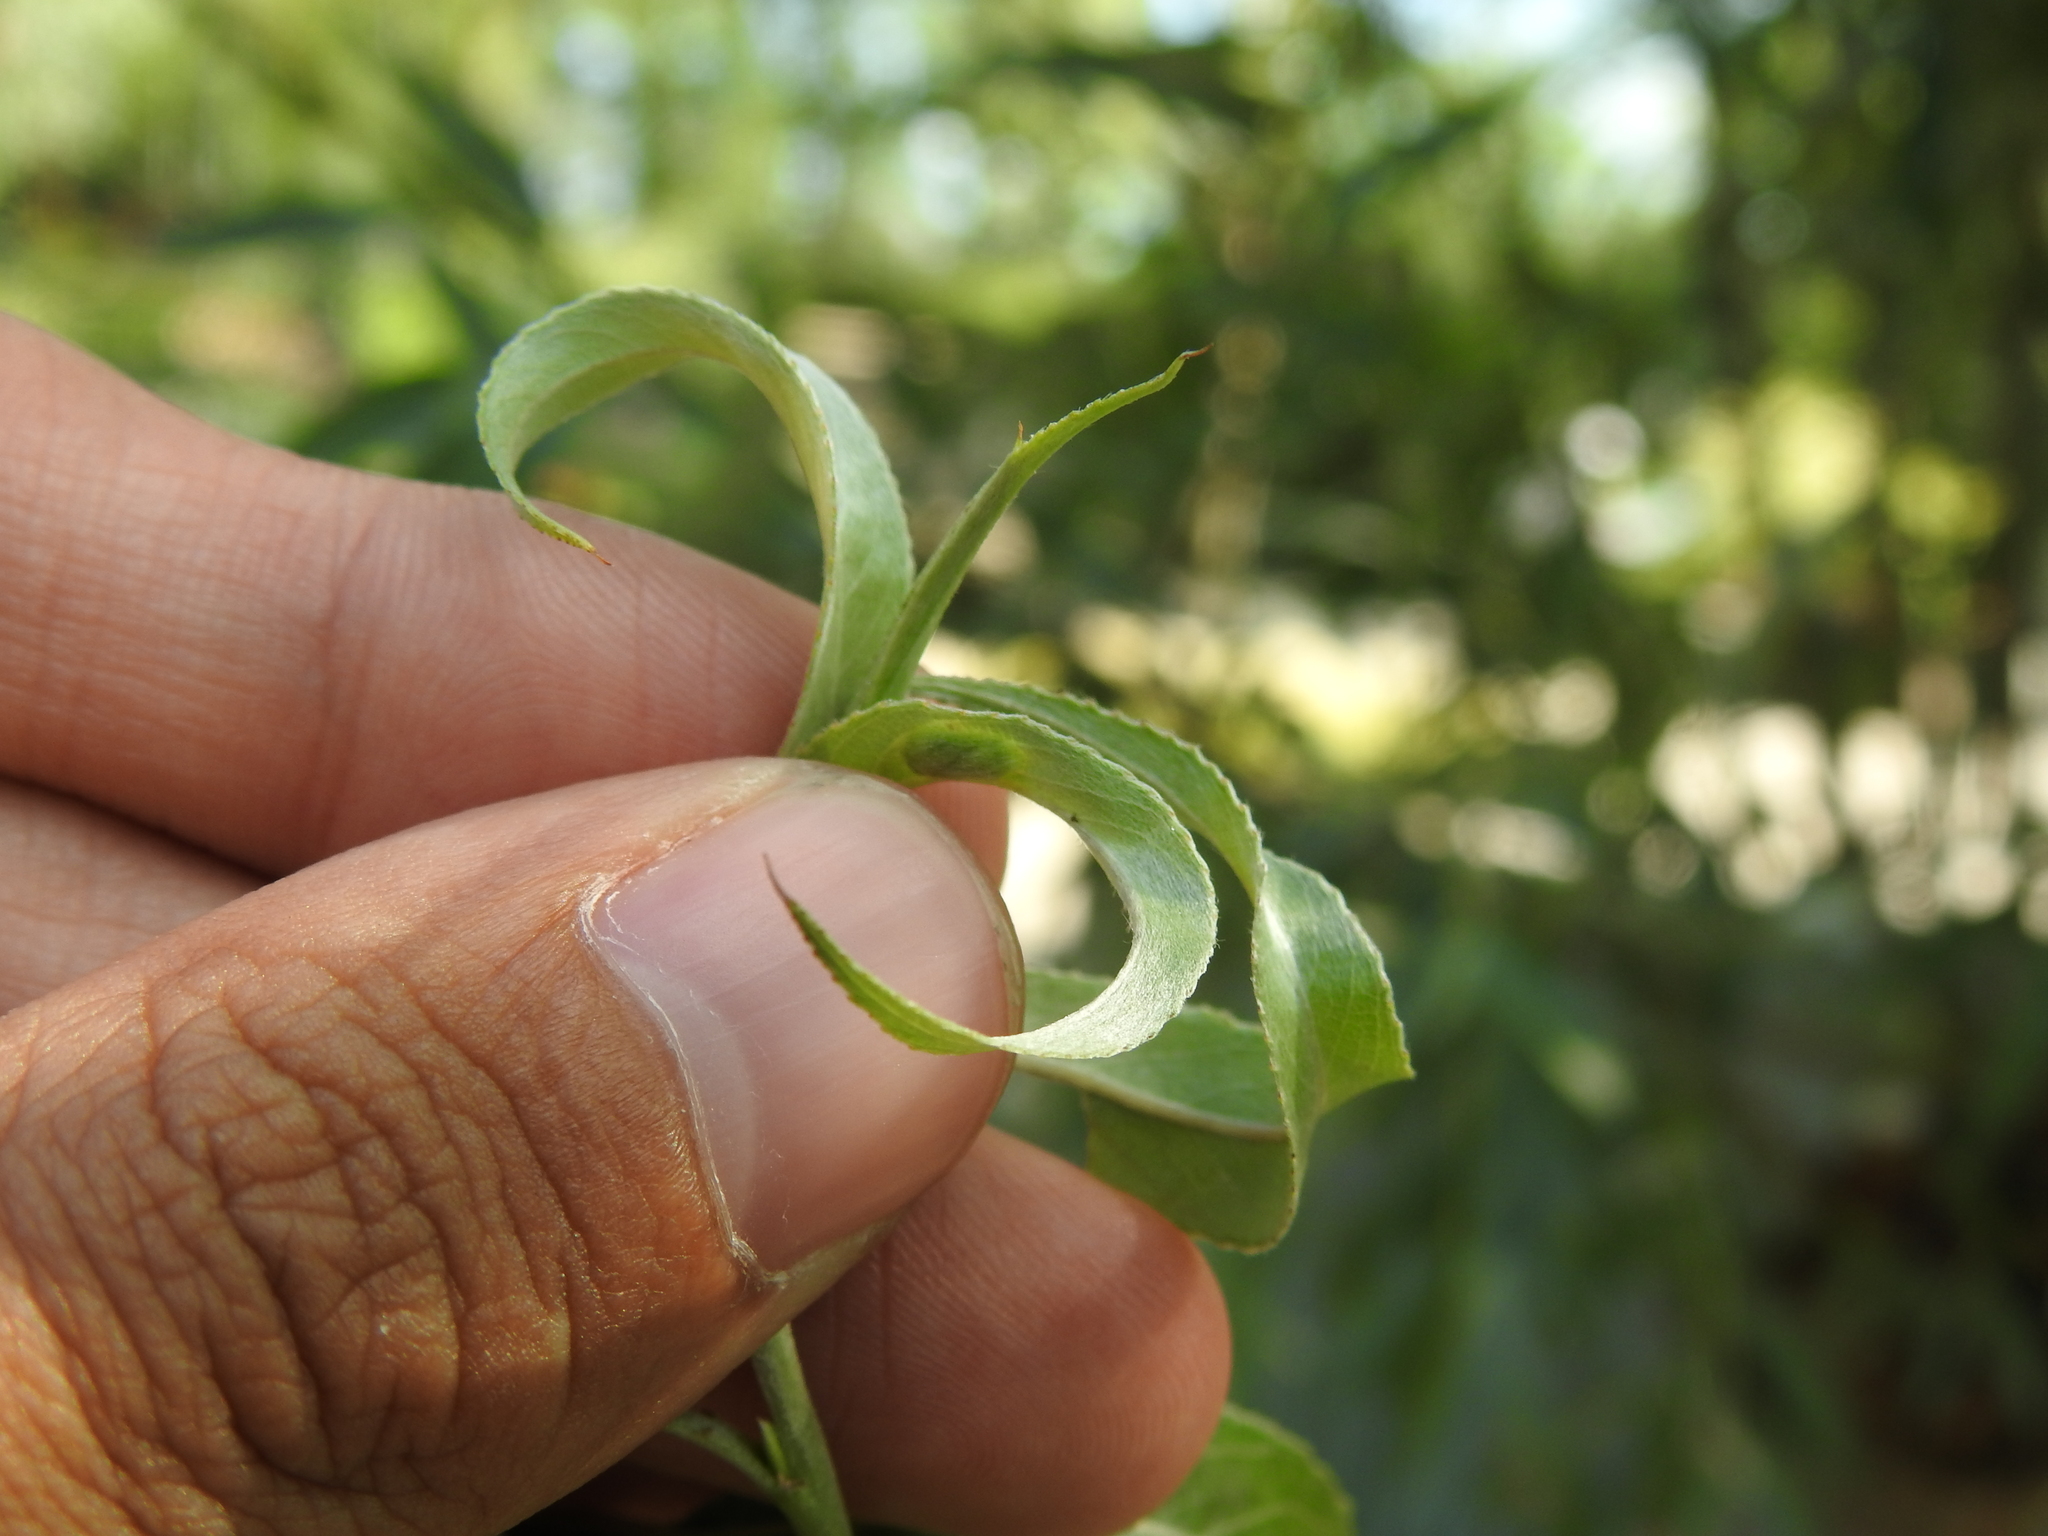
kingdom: Animalia
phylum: Arthropoda
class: Insecta
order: Hymenoptera
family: Tenthredinidae
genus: Pontania
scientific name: Pontania proxima
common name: Common sawfly
